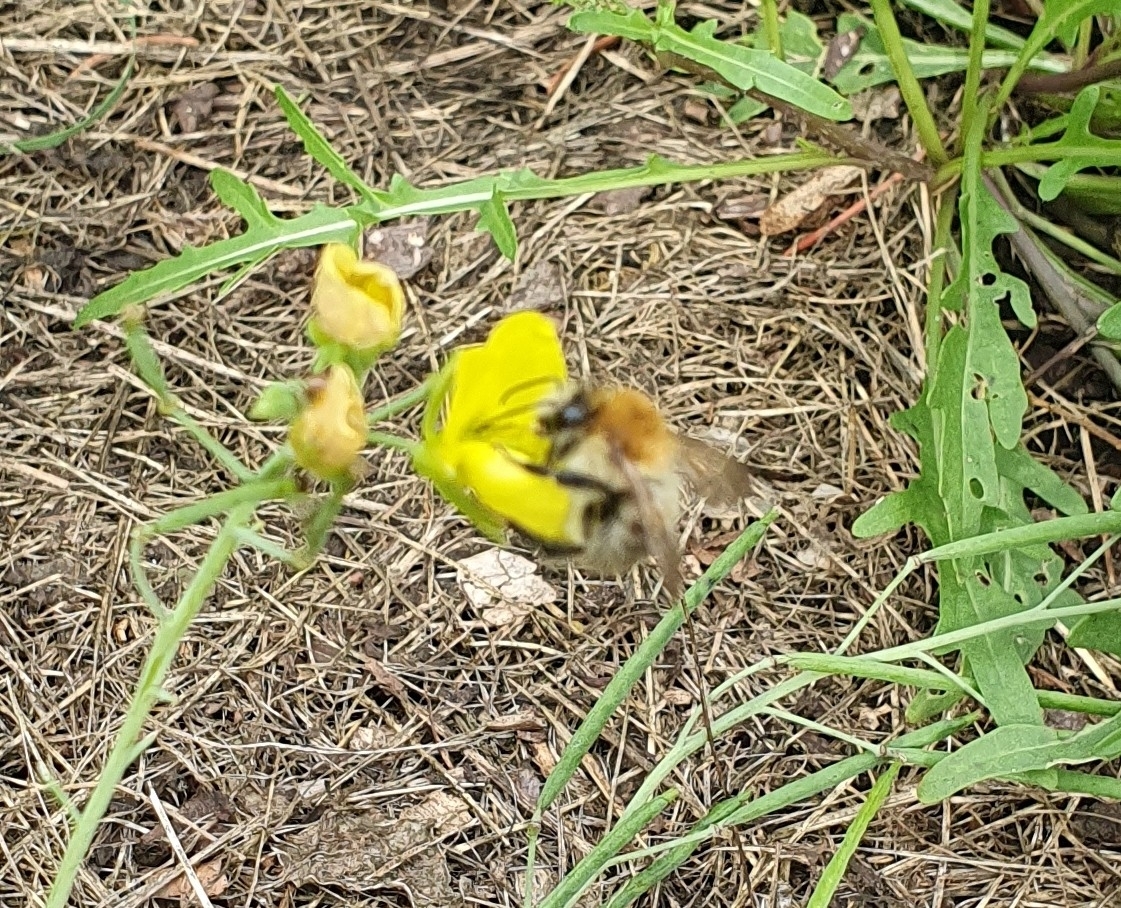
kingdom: Animalia
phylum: Arthropoda
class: Insecta
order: Hymenoptera
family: Apidae
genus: Bombus
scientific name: Bombus pascuorum
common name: Common carder bee
